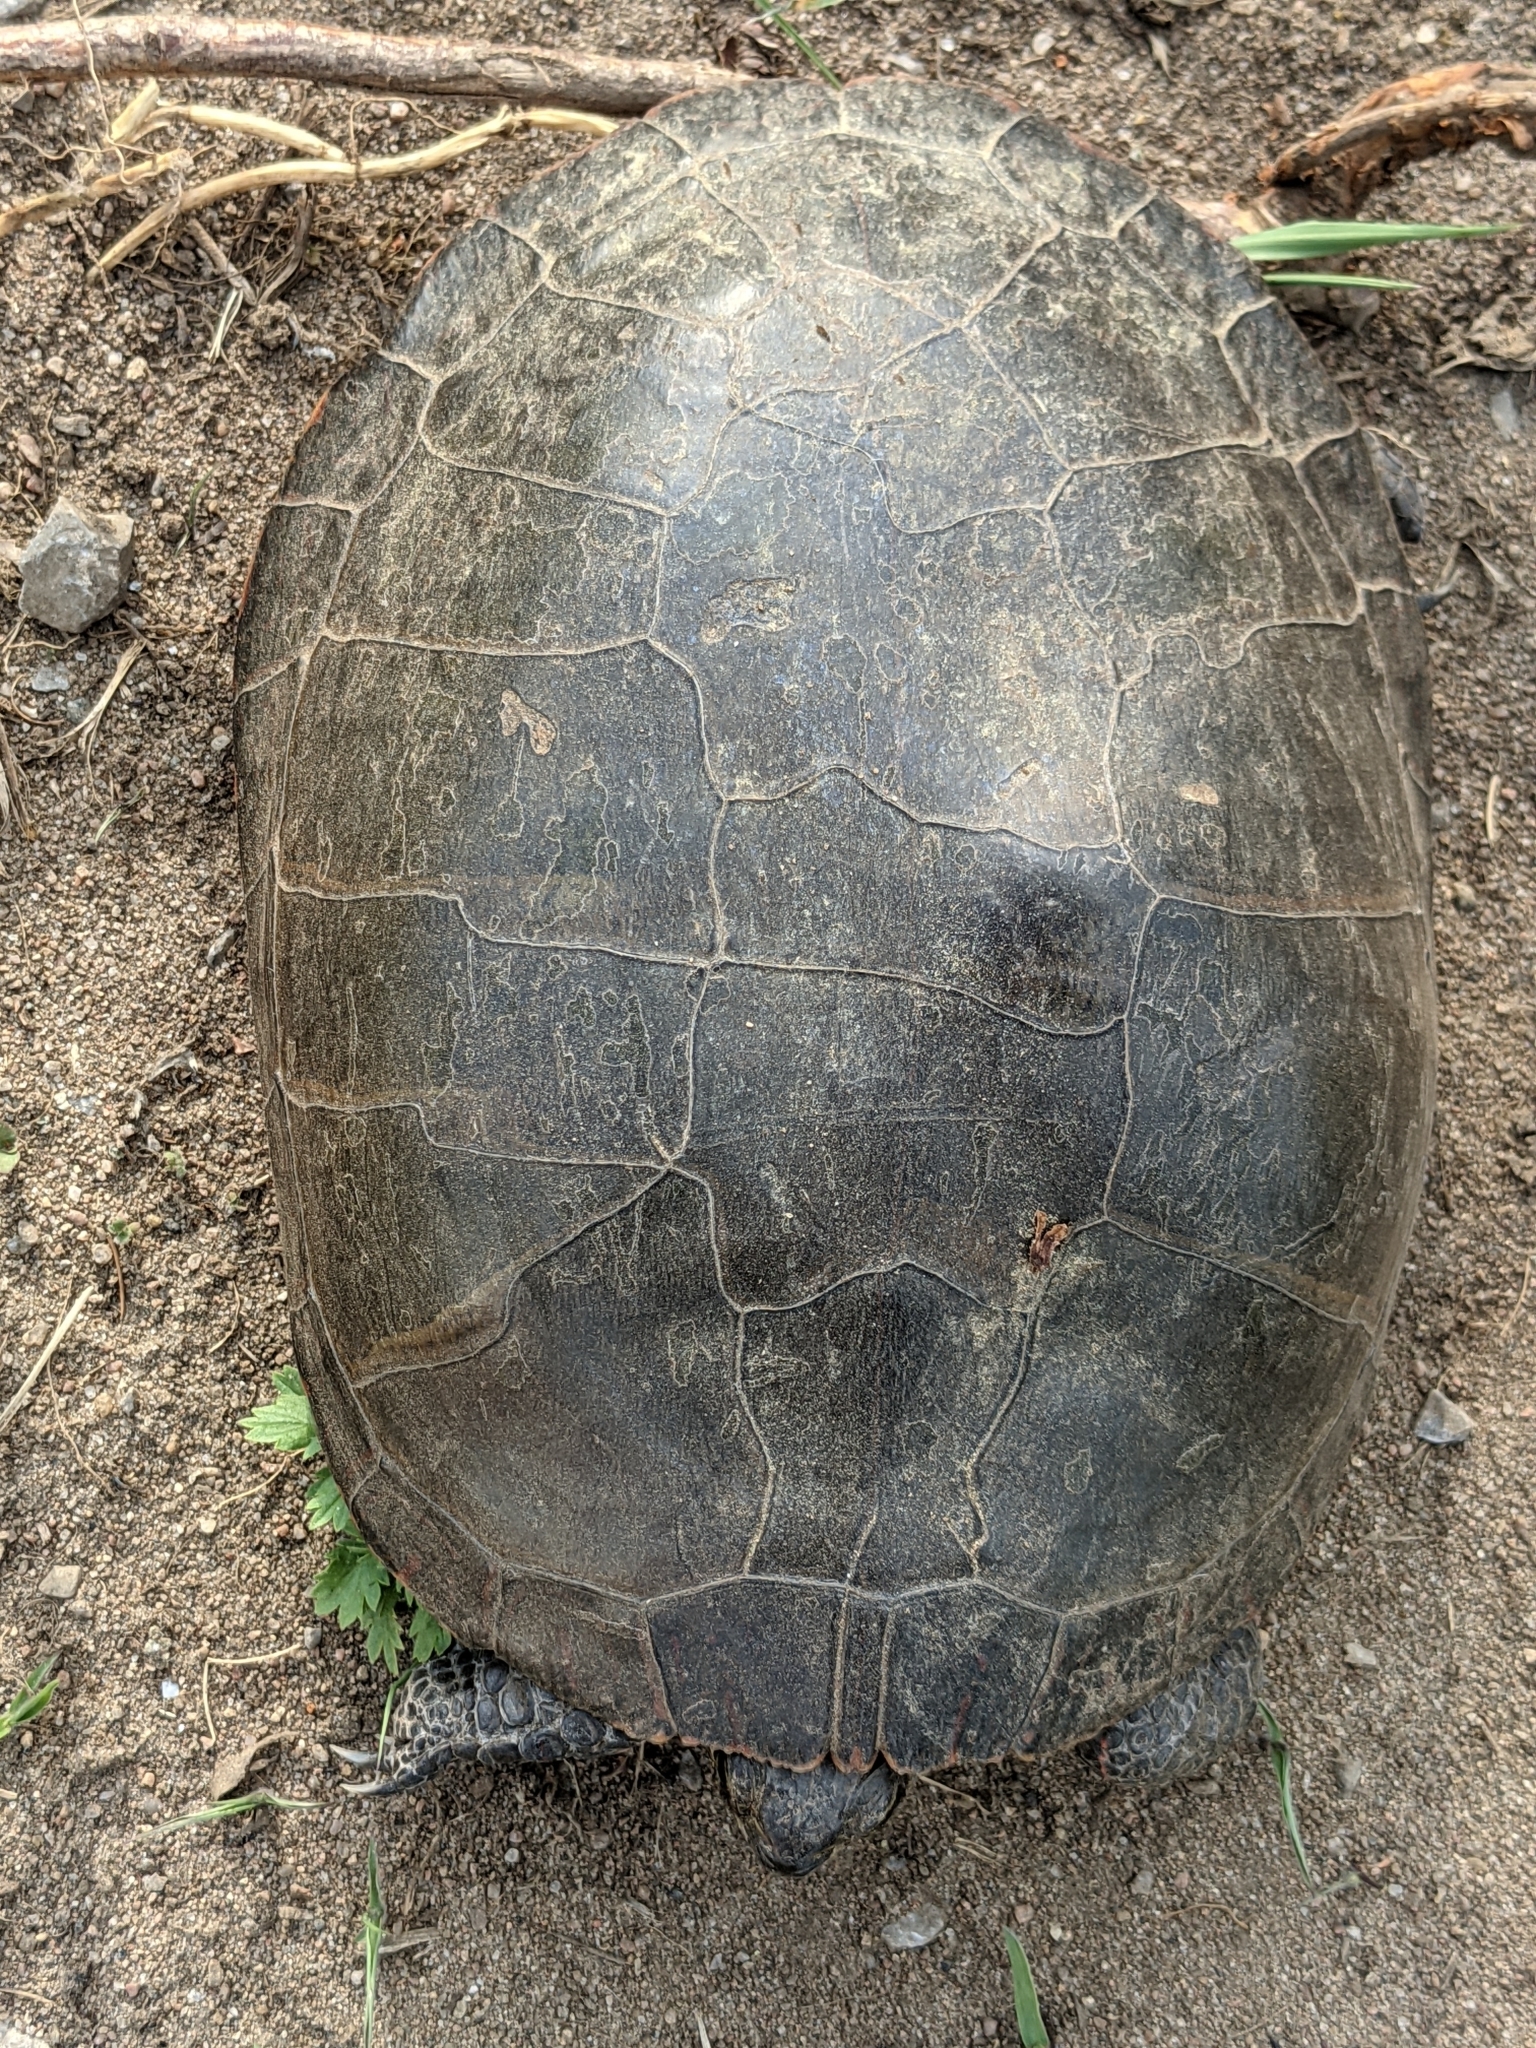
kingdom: Animalia
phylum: Chordata
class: Testudines
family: Emydidae
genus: Chrysemys
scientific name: Chrysemys picta
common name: Painted turtle
